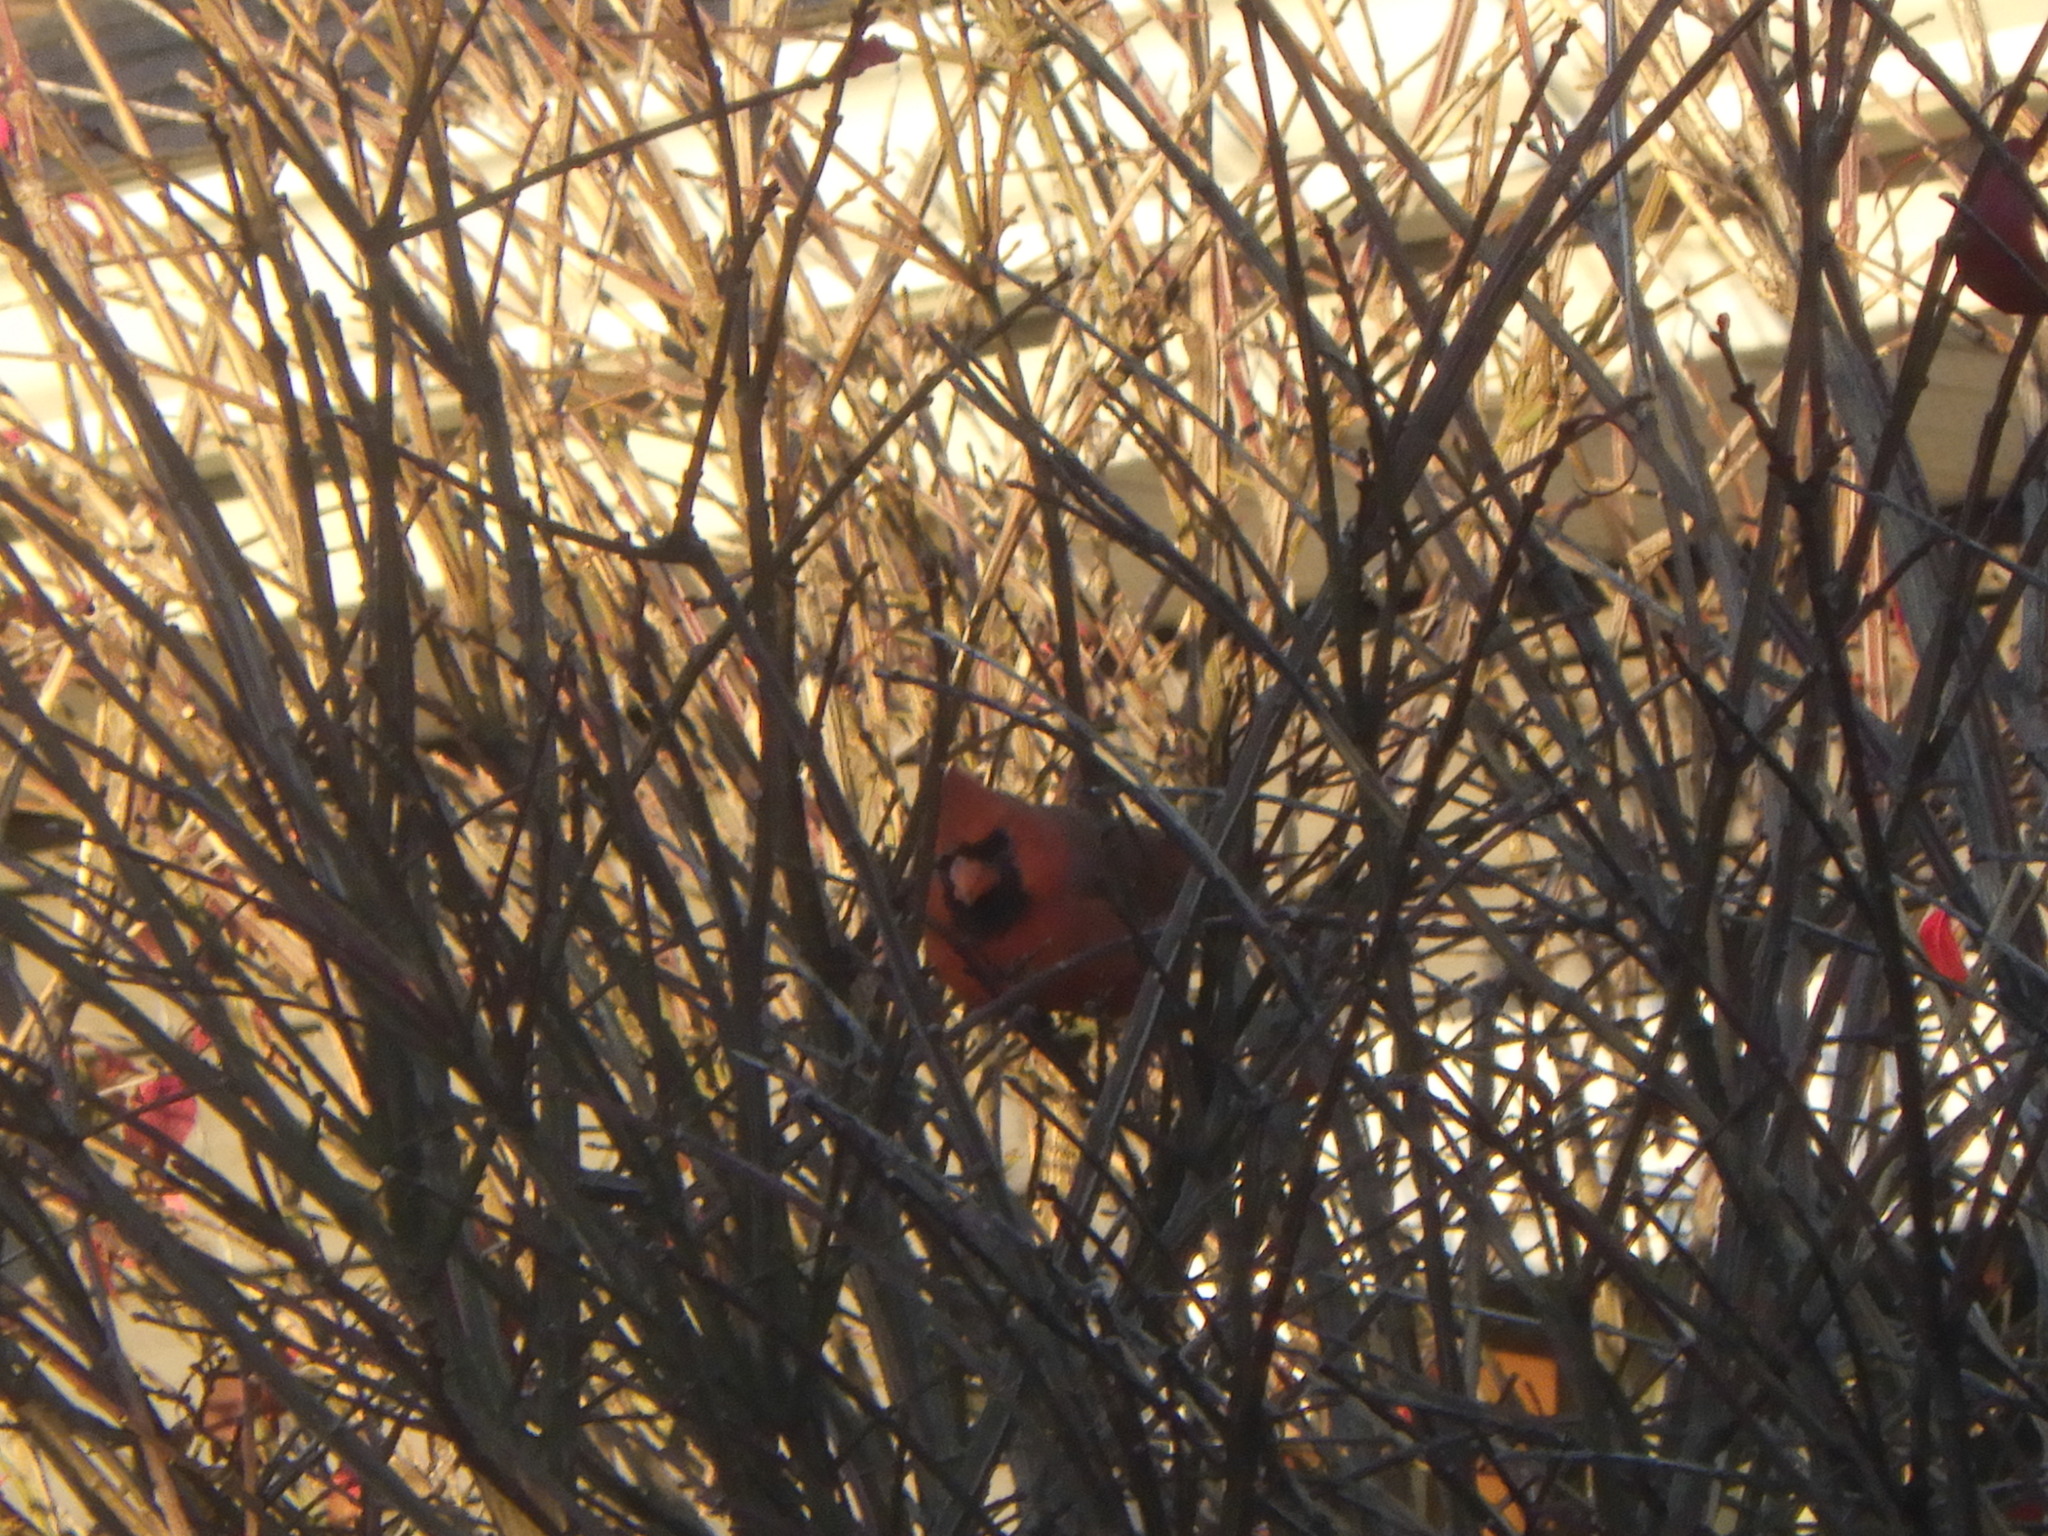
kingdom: Animalia
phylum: Chordata
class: Aves
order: Passeriformes
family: Cardinalidae
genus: Cardinalis
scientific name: Cardinalis cardinalis
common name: Northern cardinal
